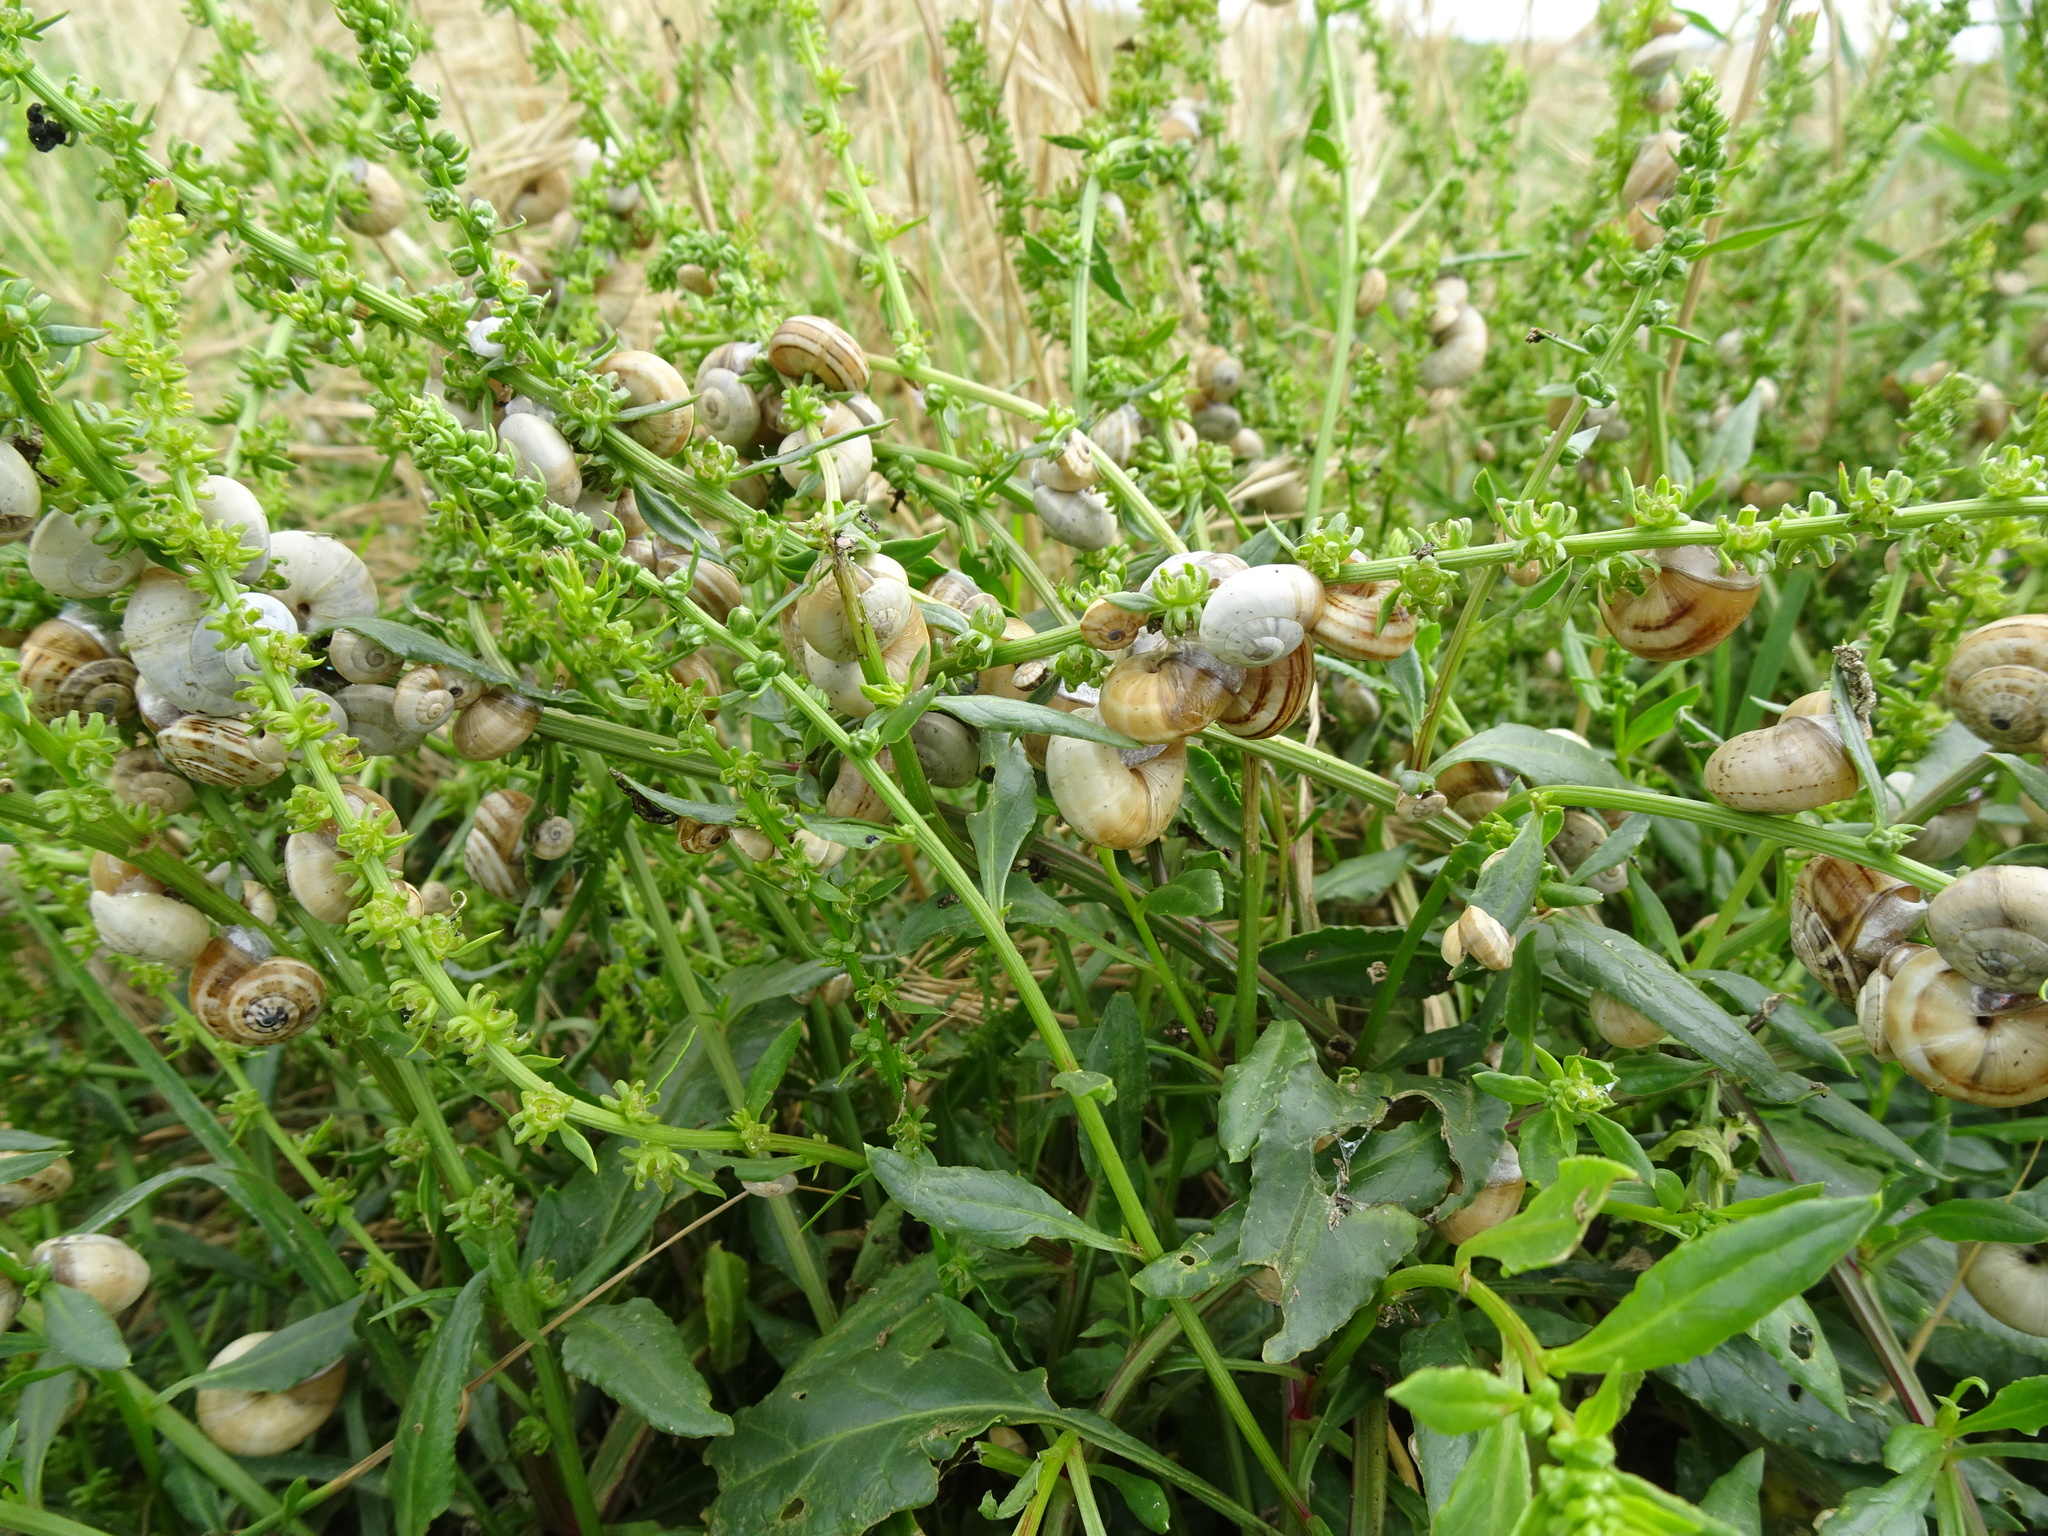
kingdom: Plantae
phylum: Tracheophyta
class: Magnoliopsida
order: Caryophyllales
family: Amaranthaceae
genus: Beta
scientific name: Beta vulgaris
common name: Beet
